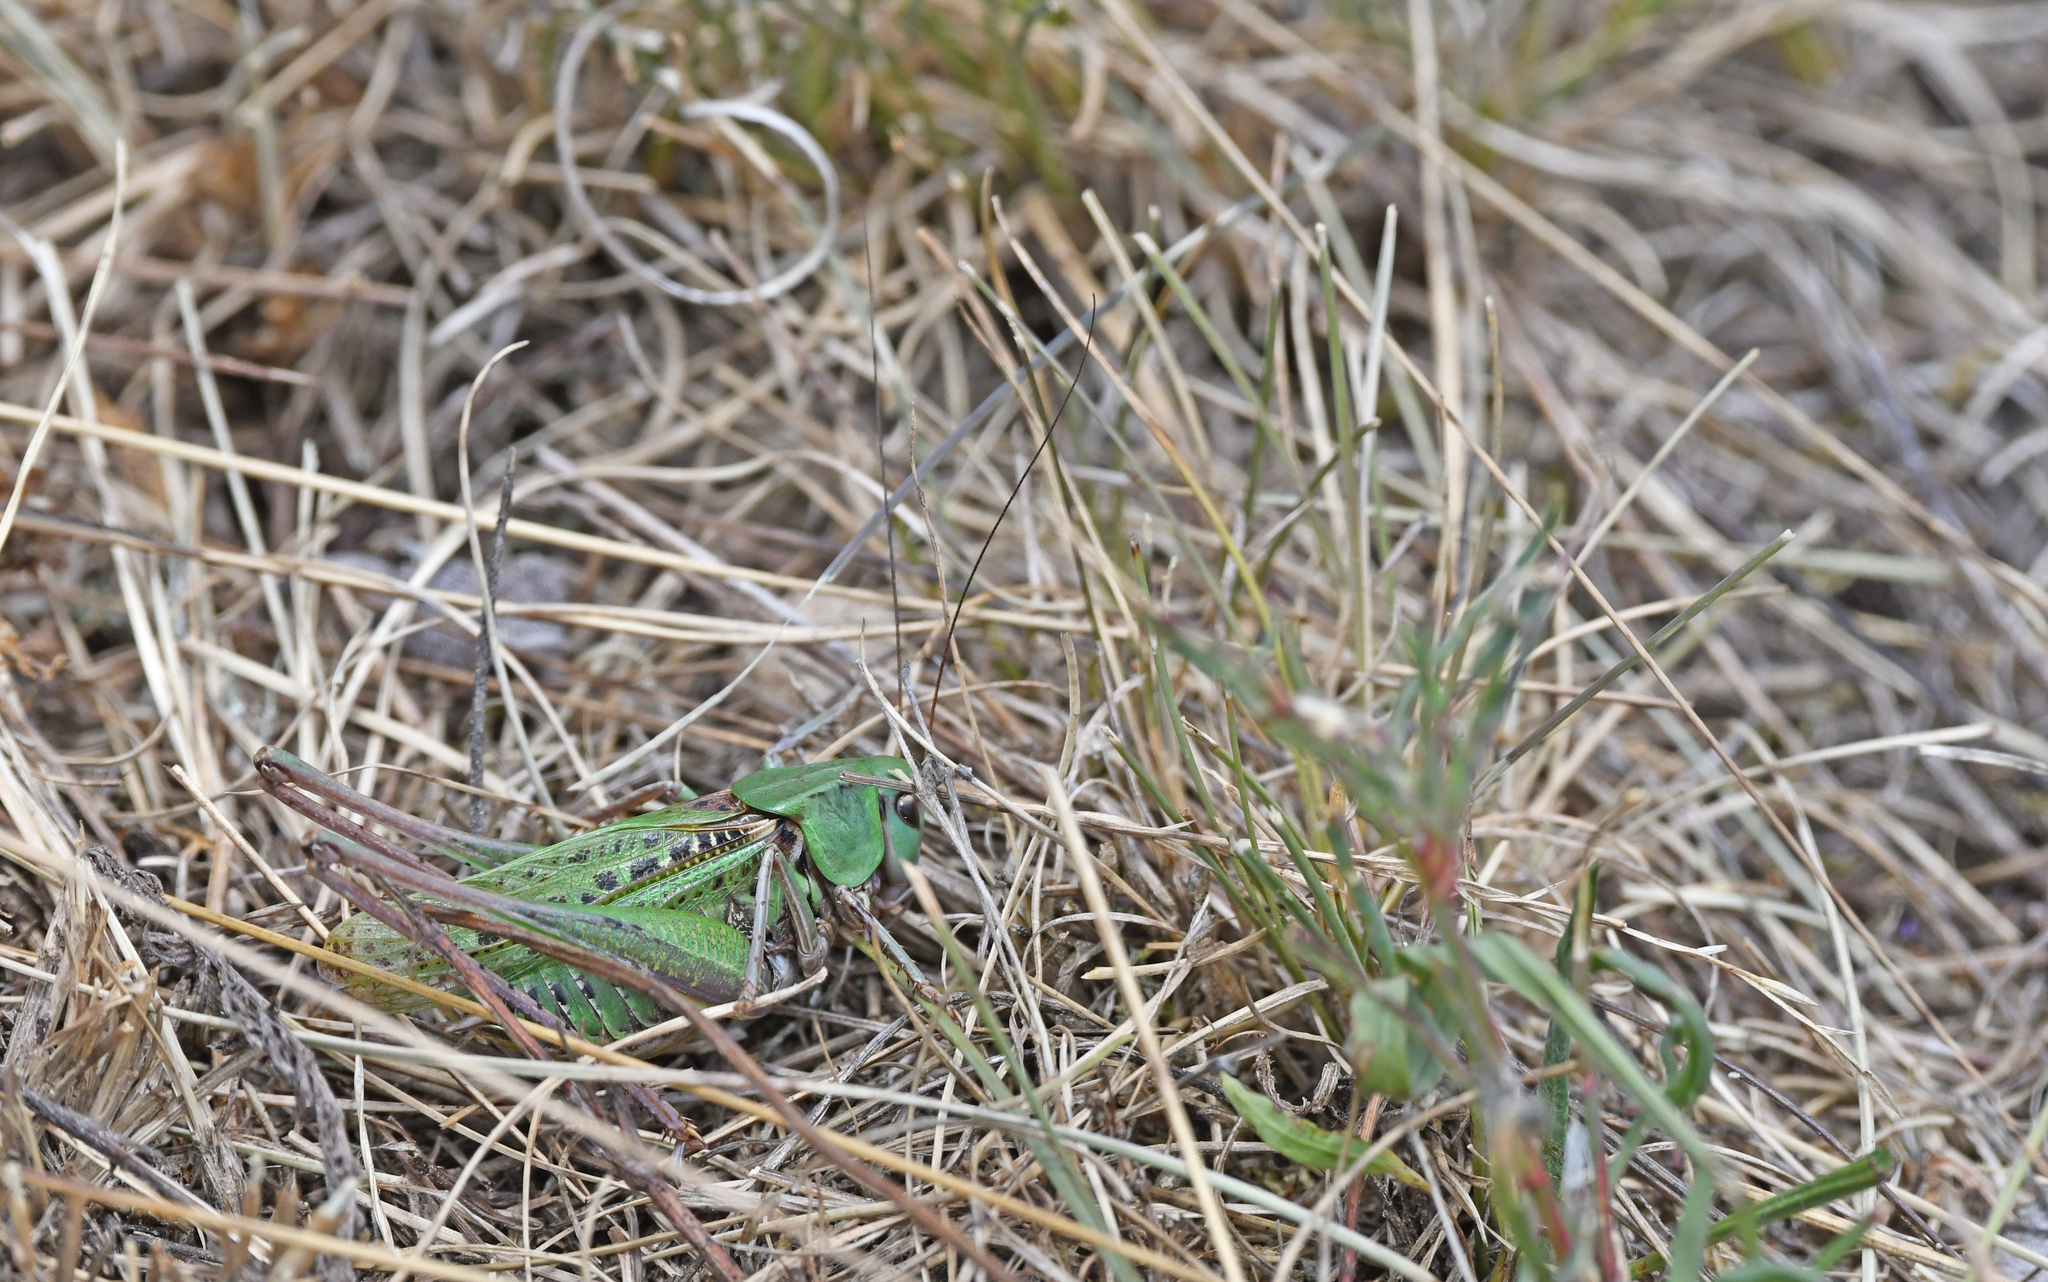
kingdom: Animalia
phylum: Arthropoda
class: Insecta
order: Orthoptera
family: Tettigoniidae
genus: Decticus
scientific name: Decticus verrucivorus
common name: Wart-biter
